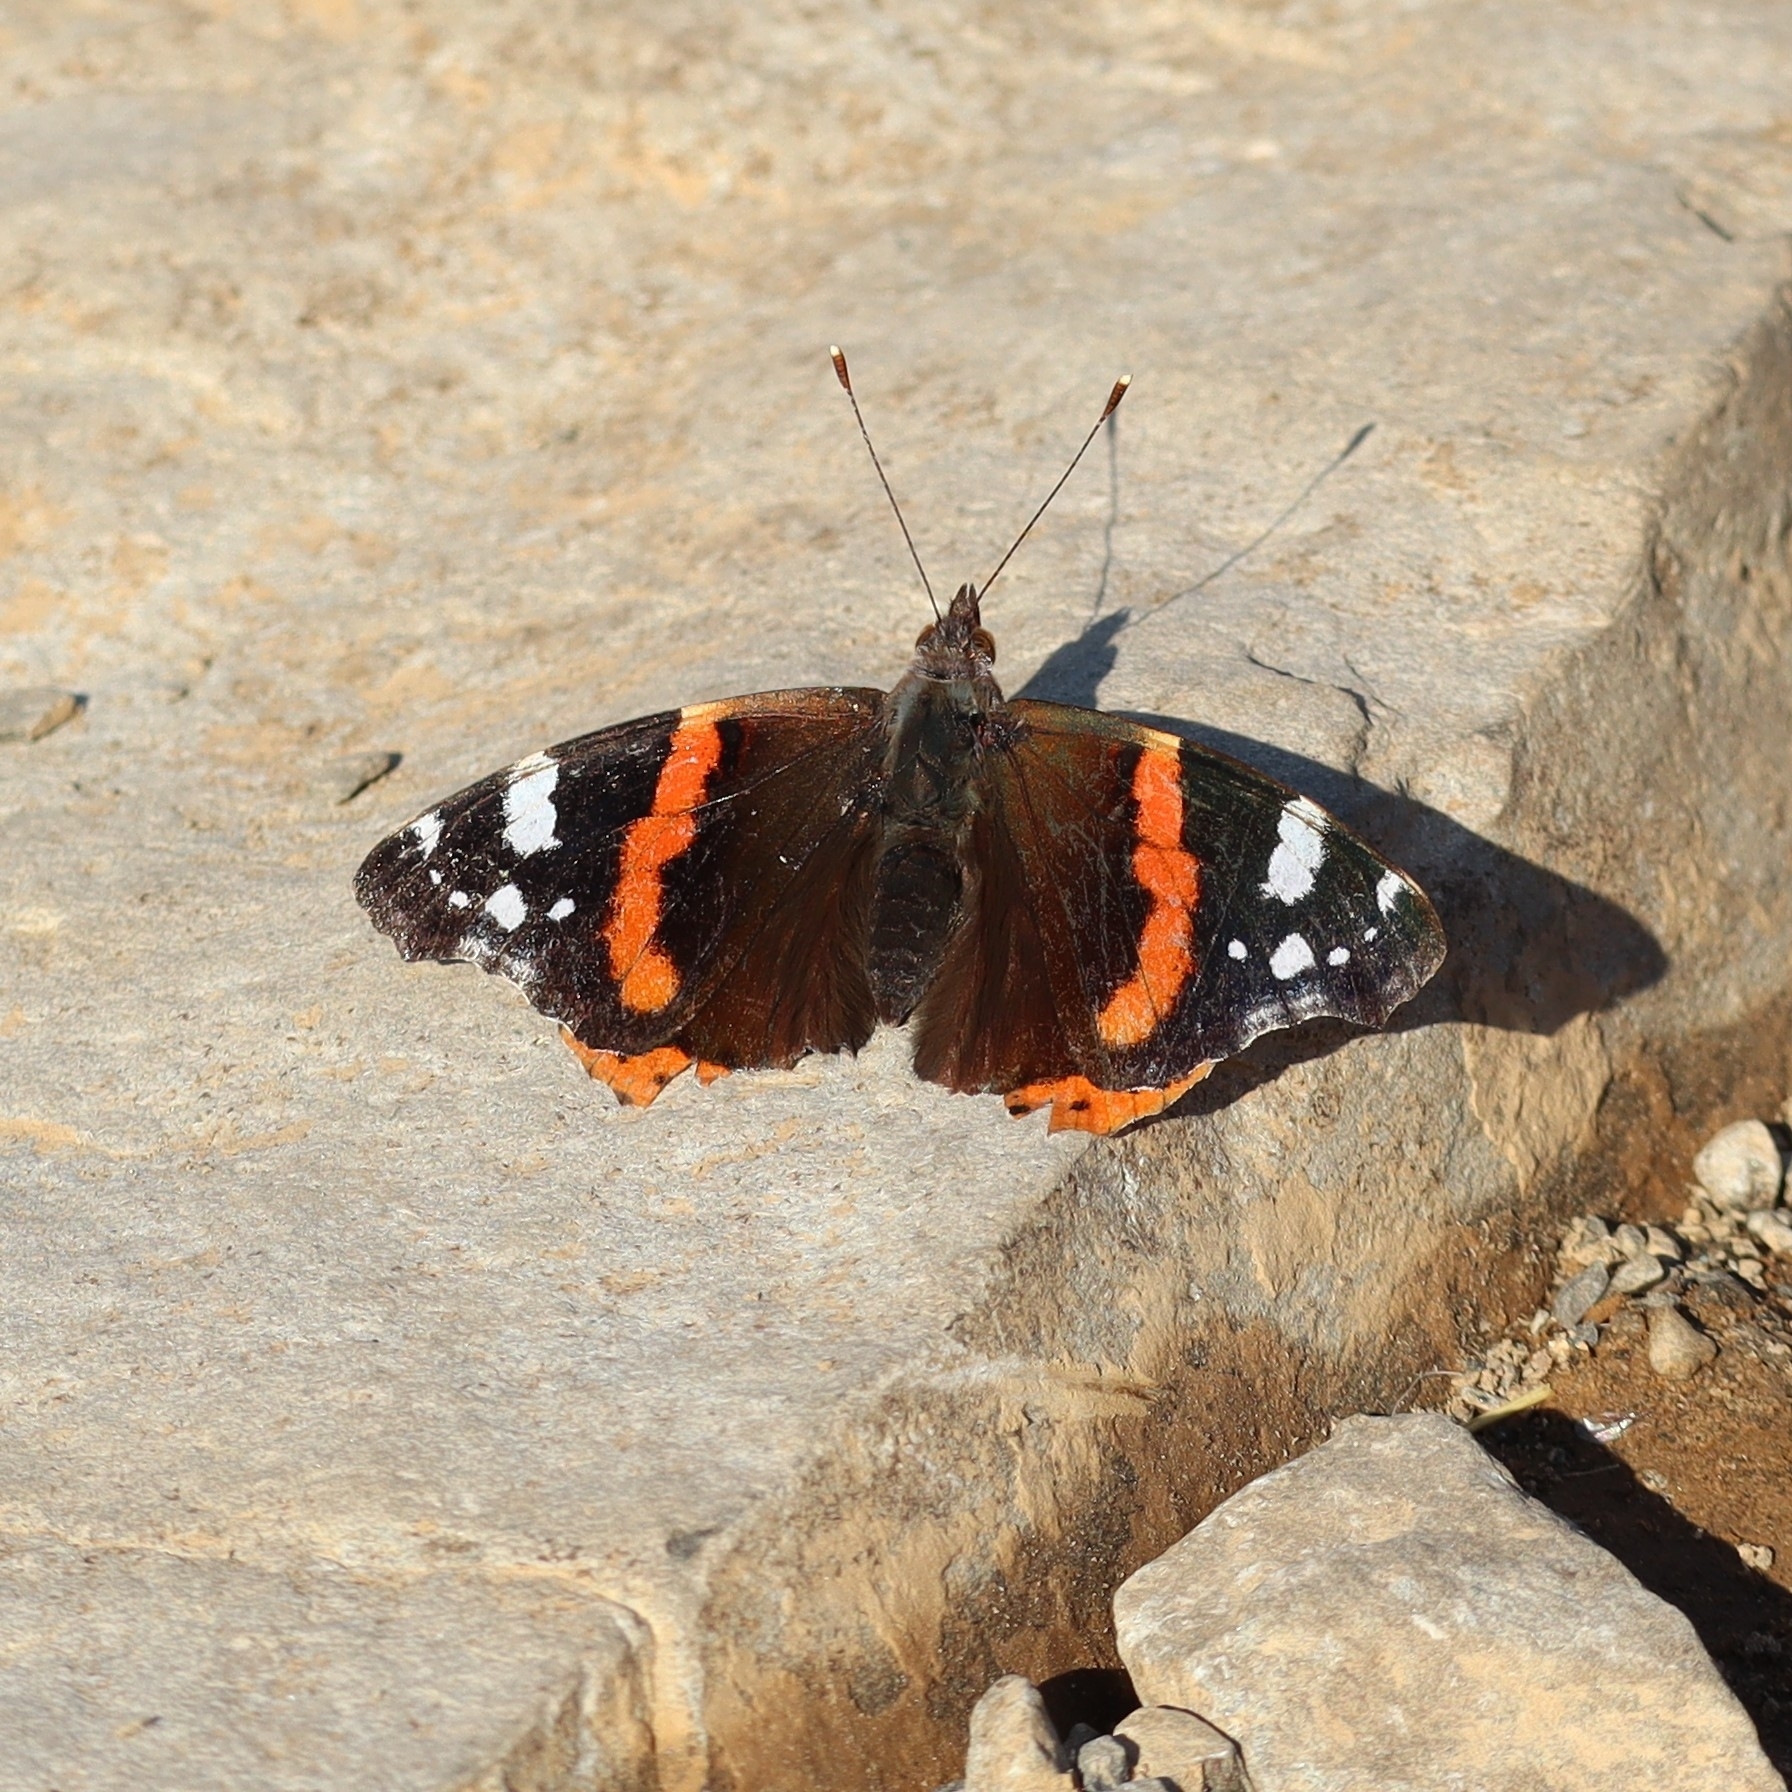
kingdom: Animalia
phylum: Arthropoda
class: Insecta
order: Lepidoptera
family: Nymphalidae
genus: Vanessa
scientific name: Vanessa atalanta
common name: Red admiral
